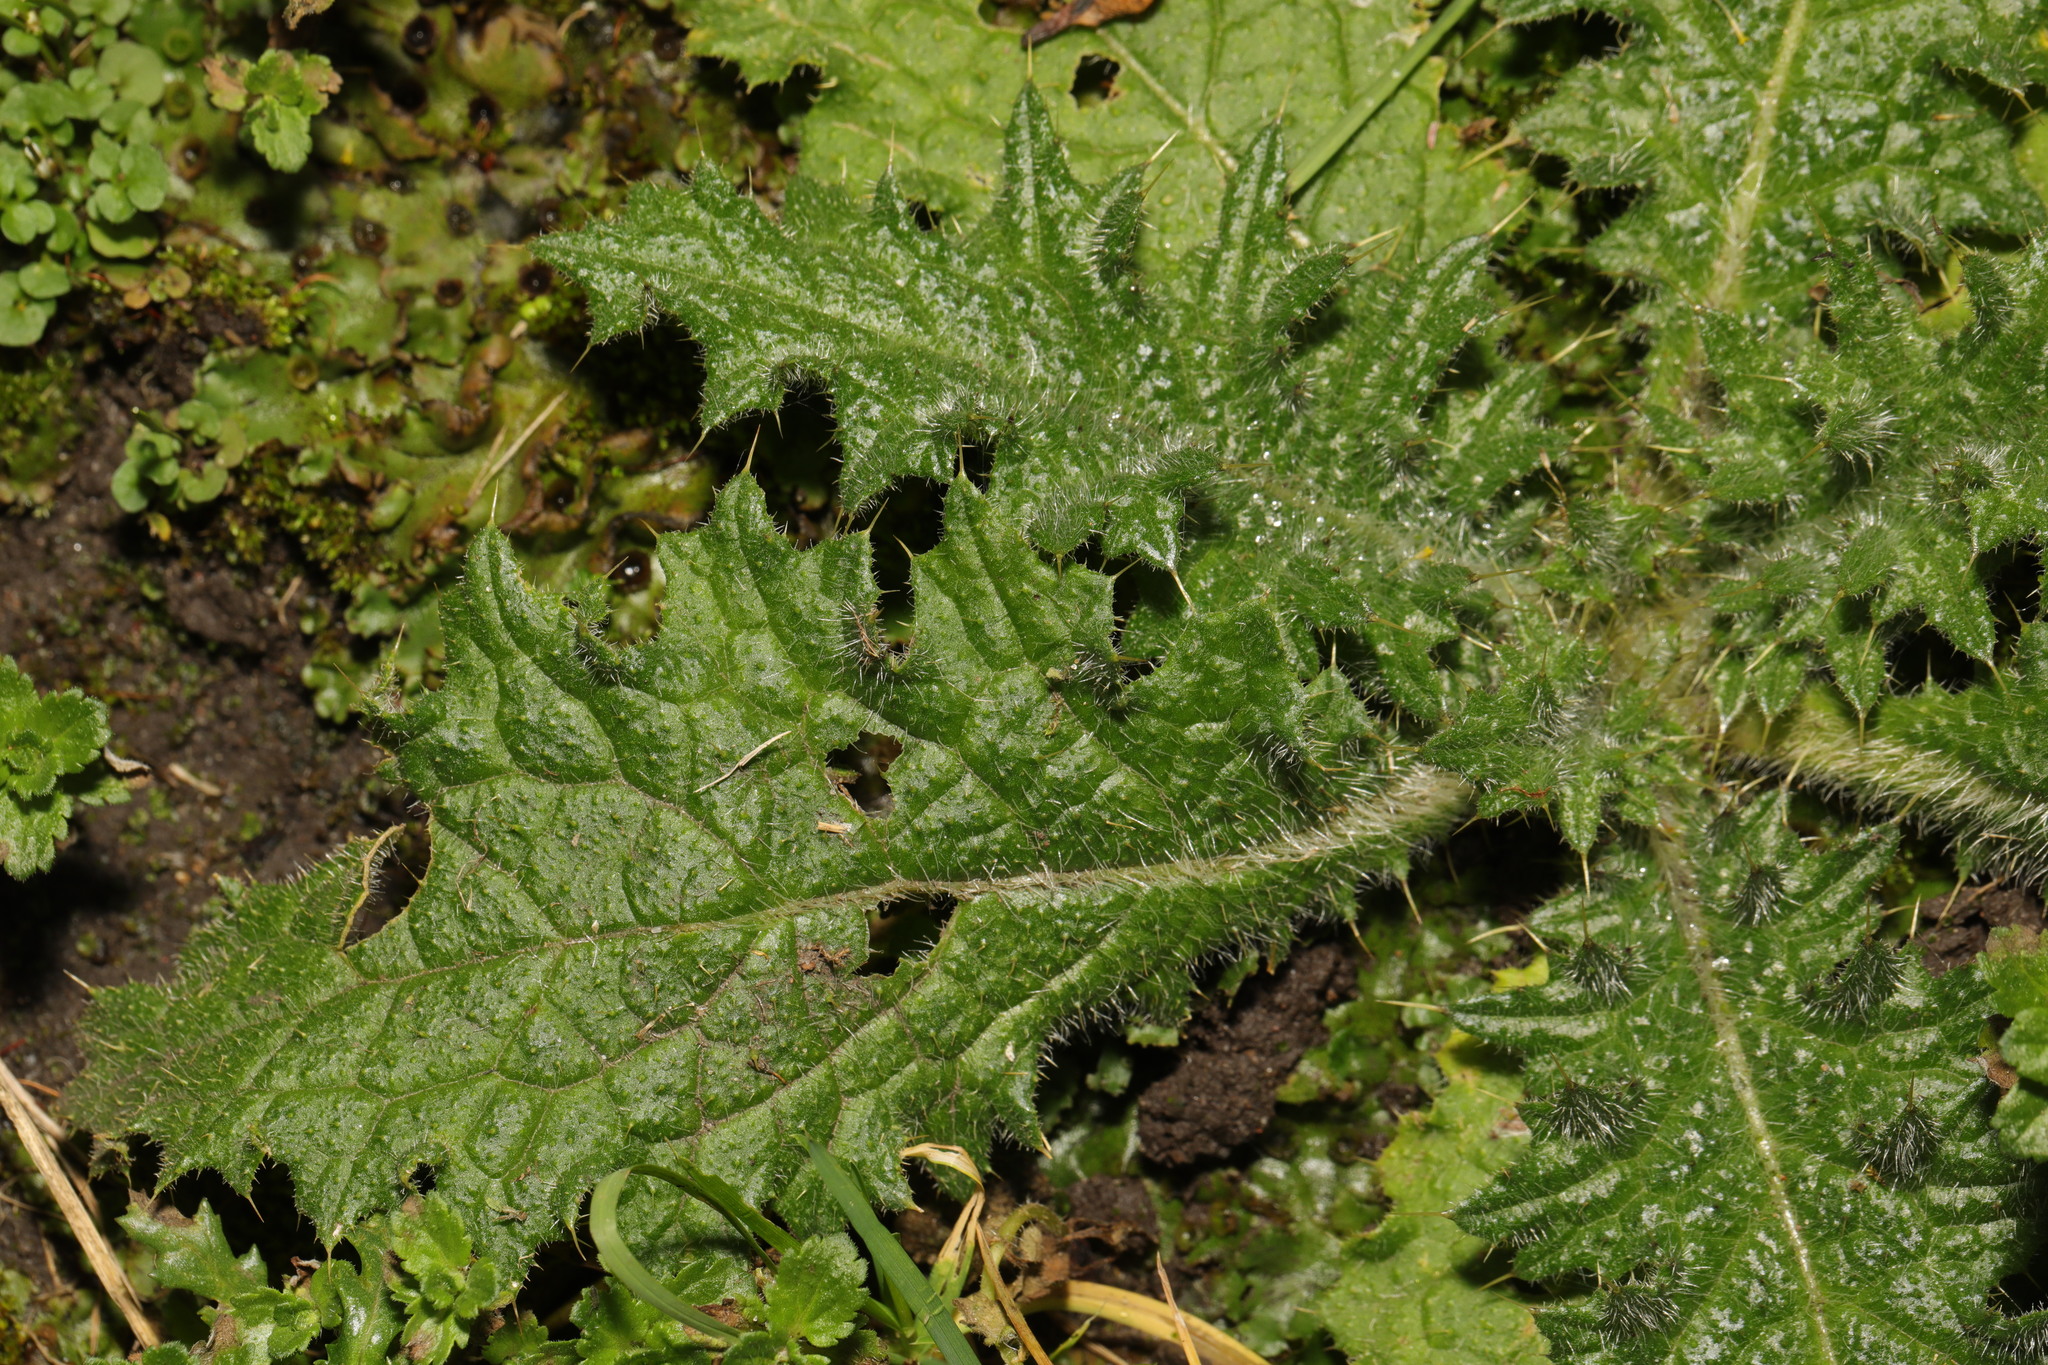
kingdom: Plantae
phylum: Tracheophyta
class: Magnoliopsida
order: Asterales
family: Asteraceae
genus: Cirsium
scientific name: Cirsium vulgare
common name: Bull thistle
